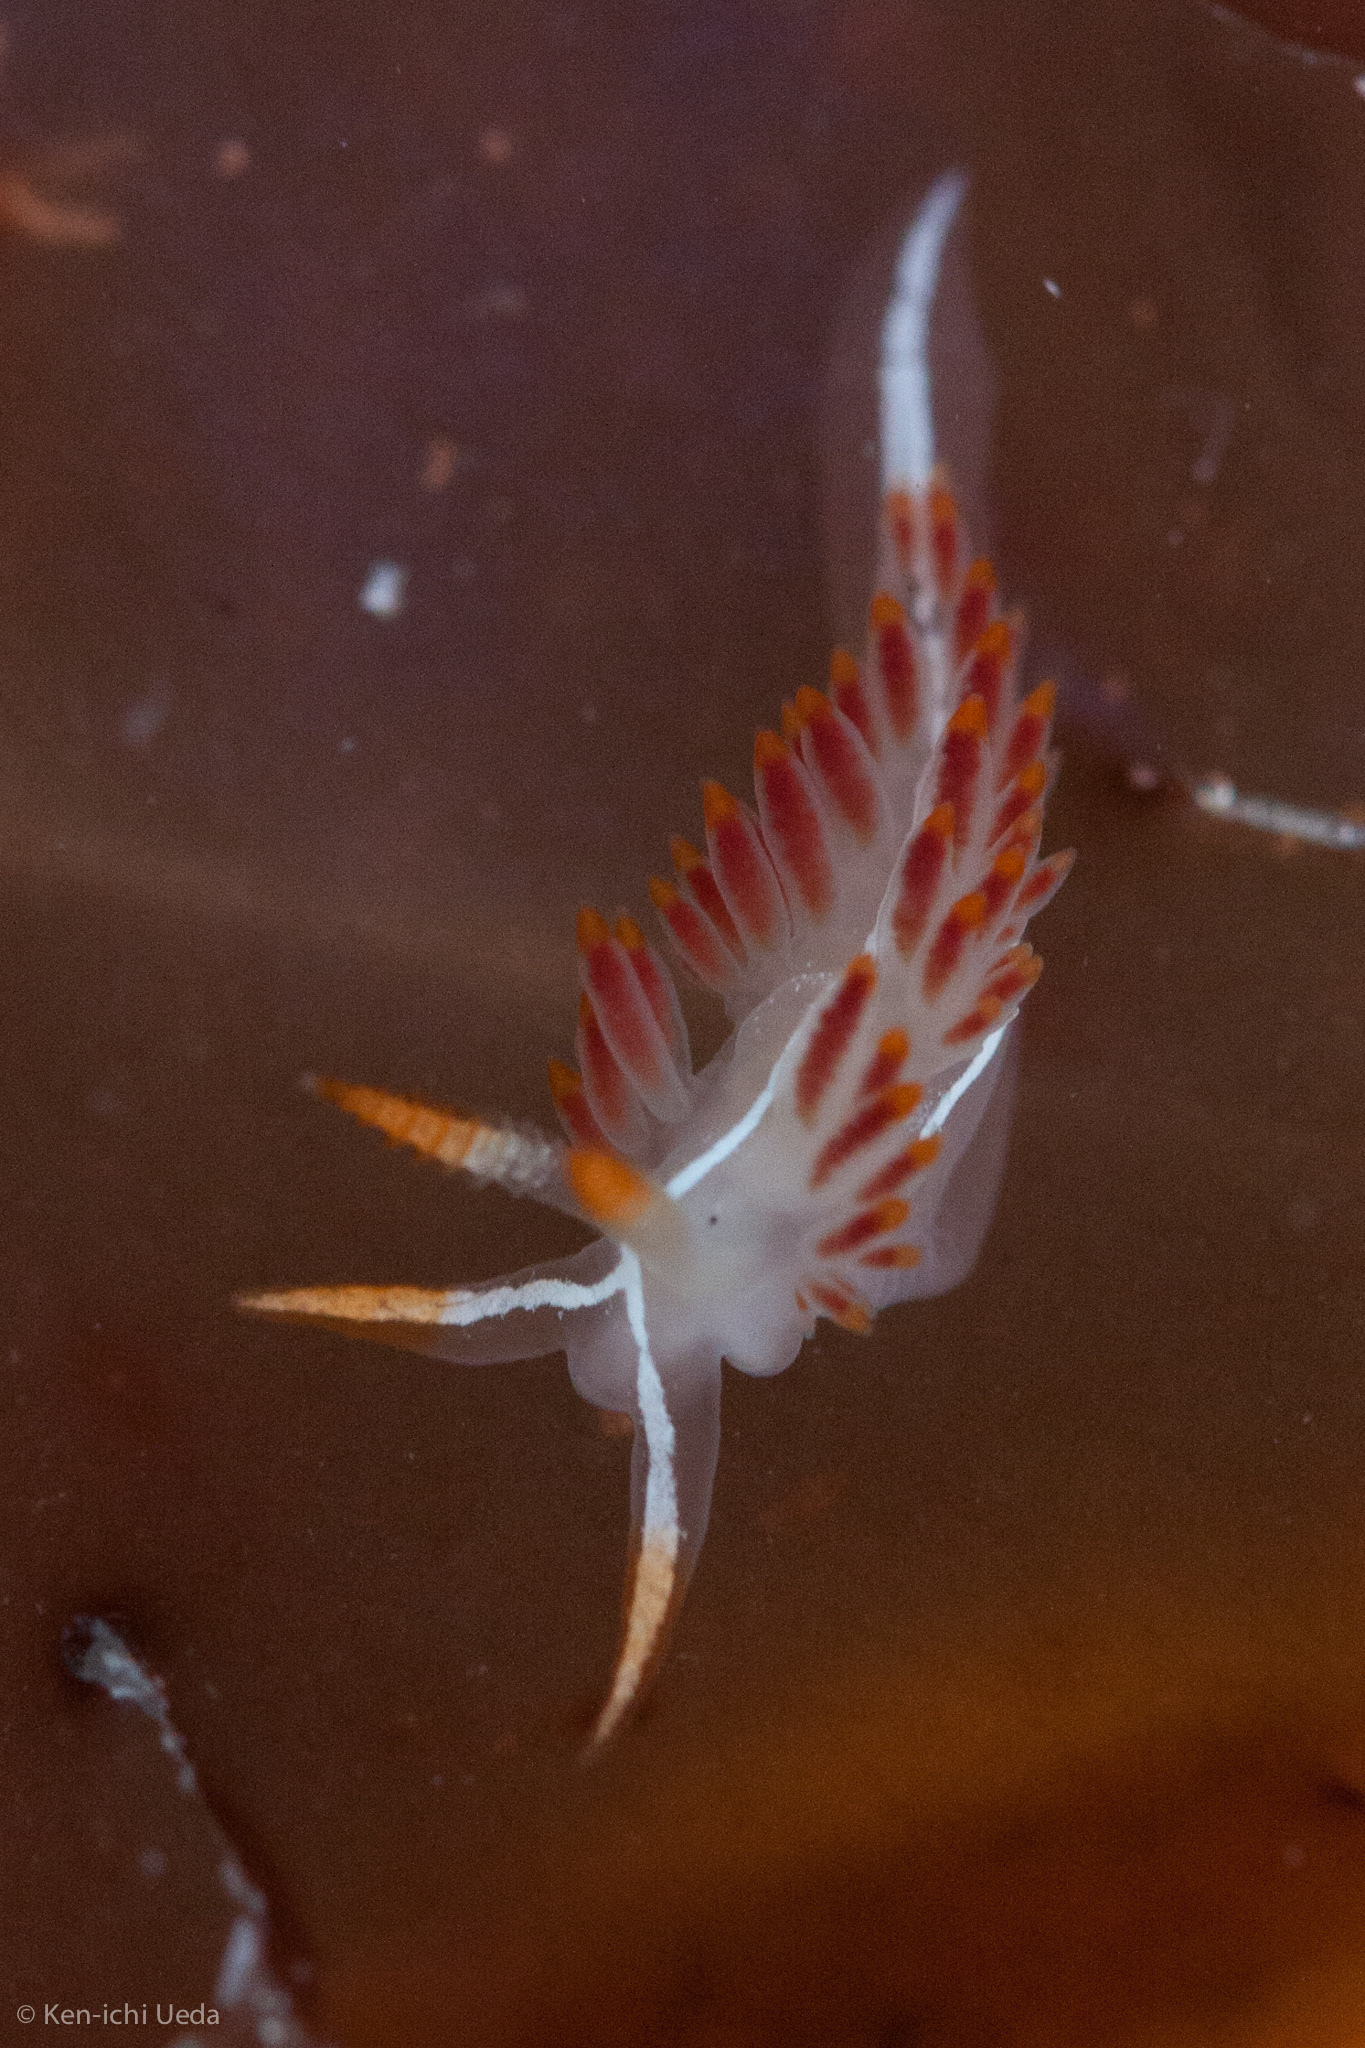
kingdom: Animalia
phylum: Mollusca
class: Gastropoda
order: Nudibranchia
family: Coryphellidae
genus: Coryphella
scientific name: Coryphella trilineata
